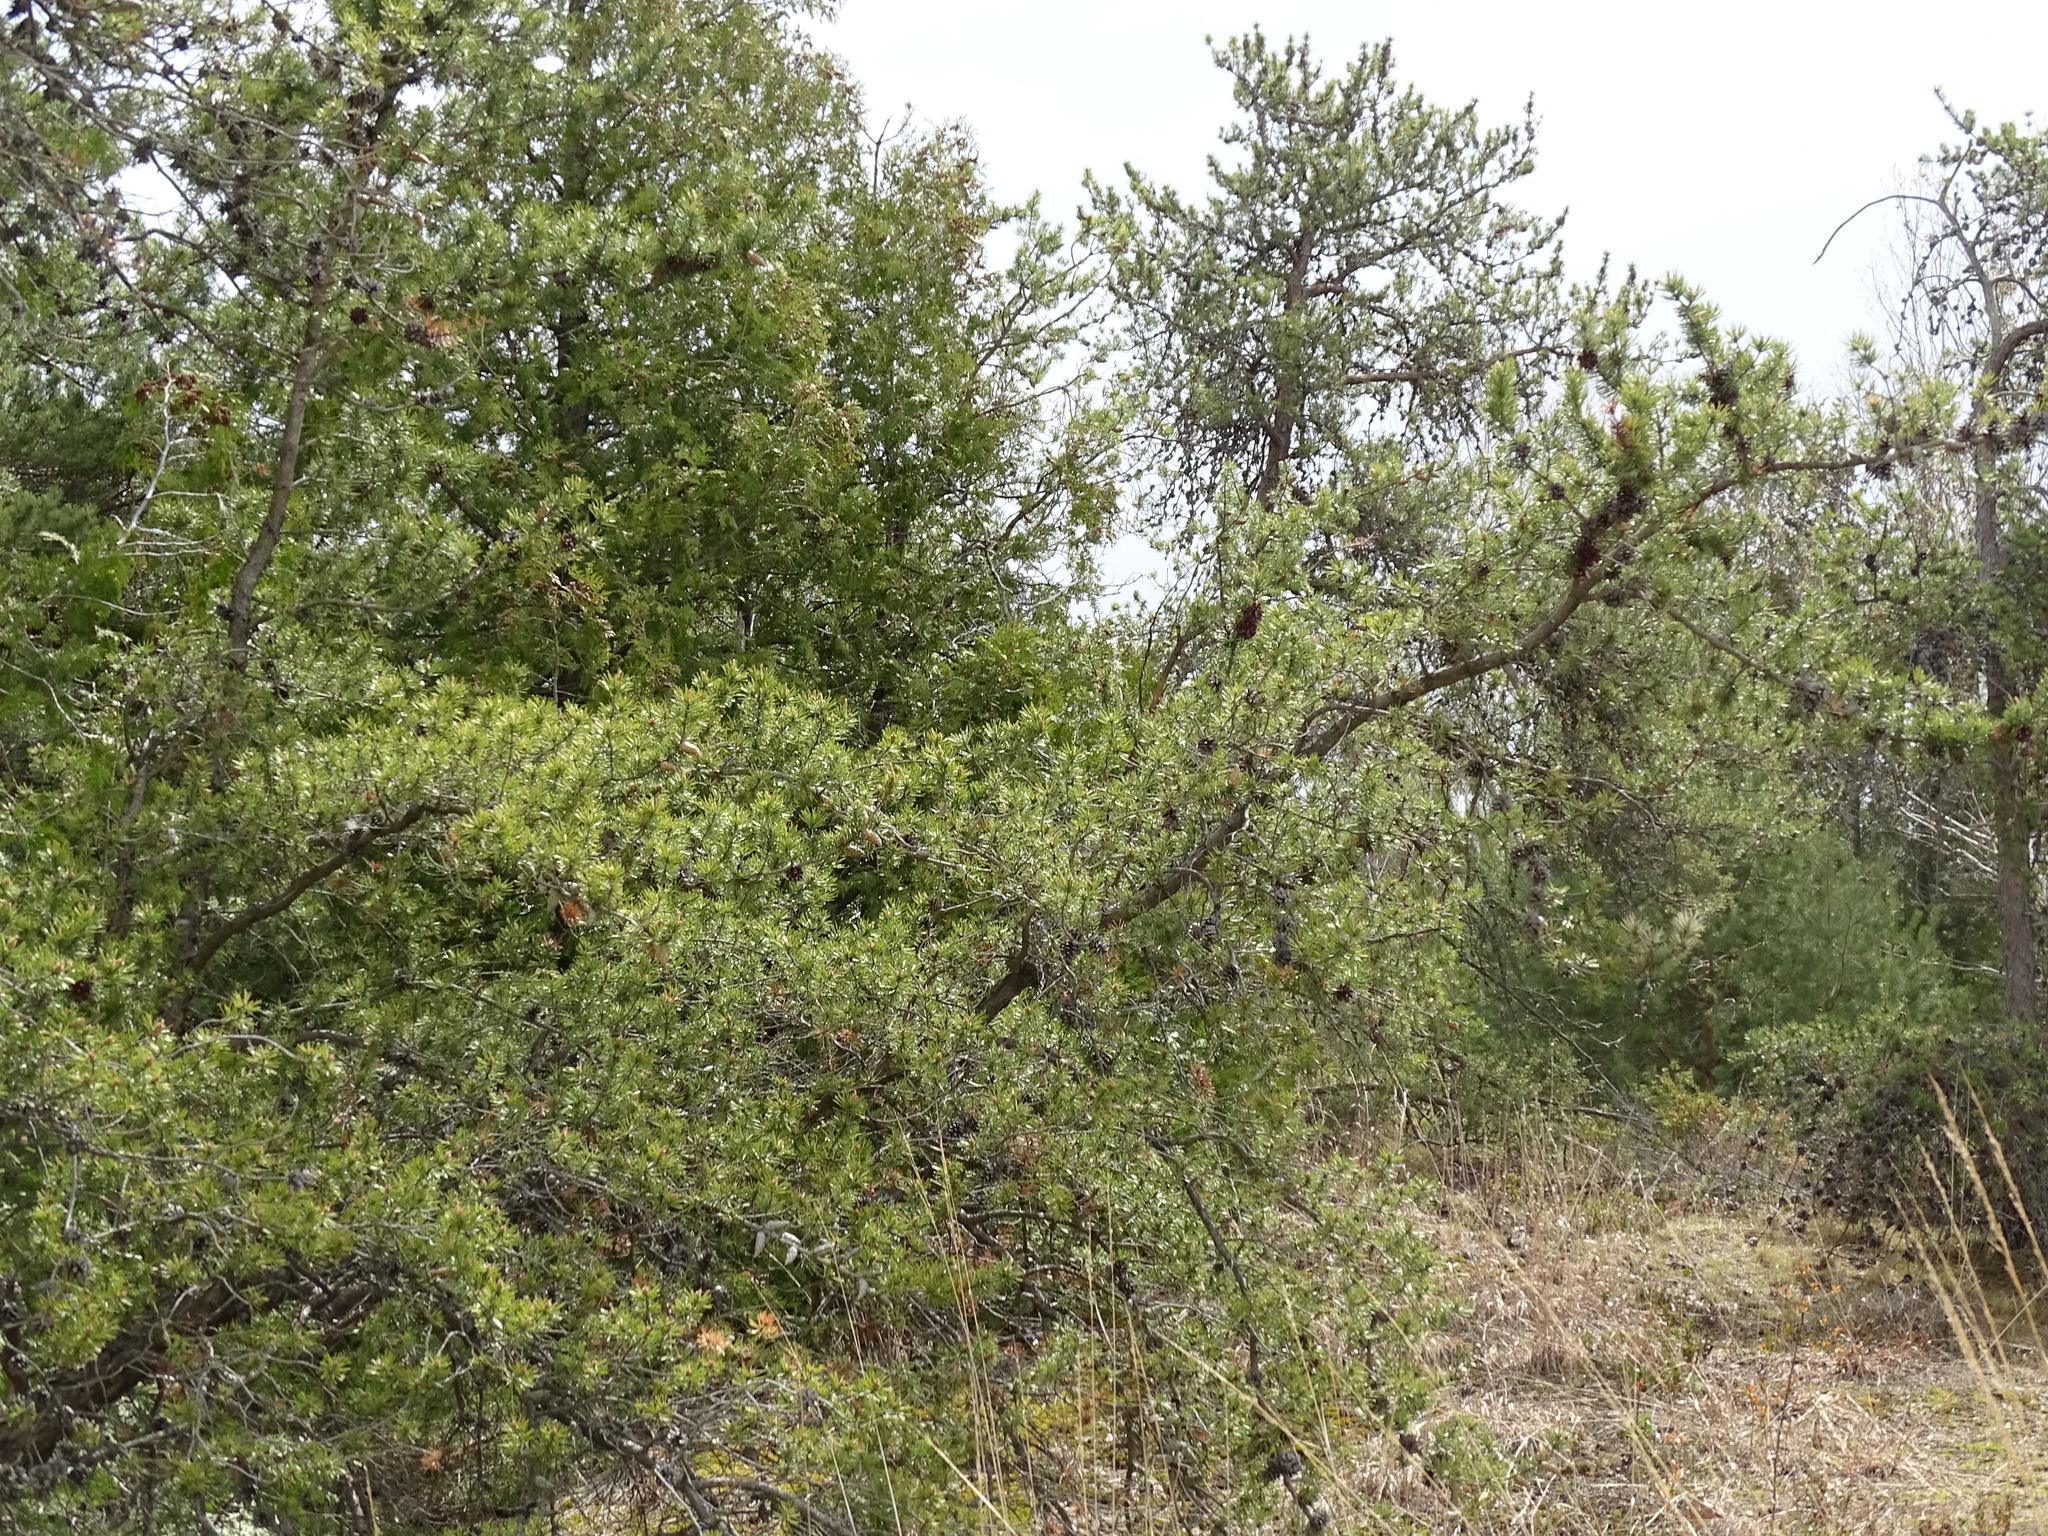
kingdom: Plantae
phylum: Tracheophyta
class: Pinopsida
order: Pinales
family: Pinaceae
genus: Pinus
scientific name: Pinus banksiana
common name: Jack pine
